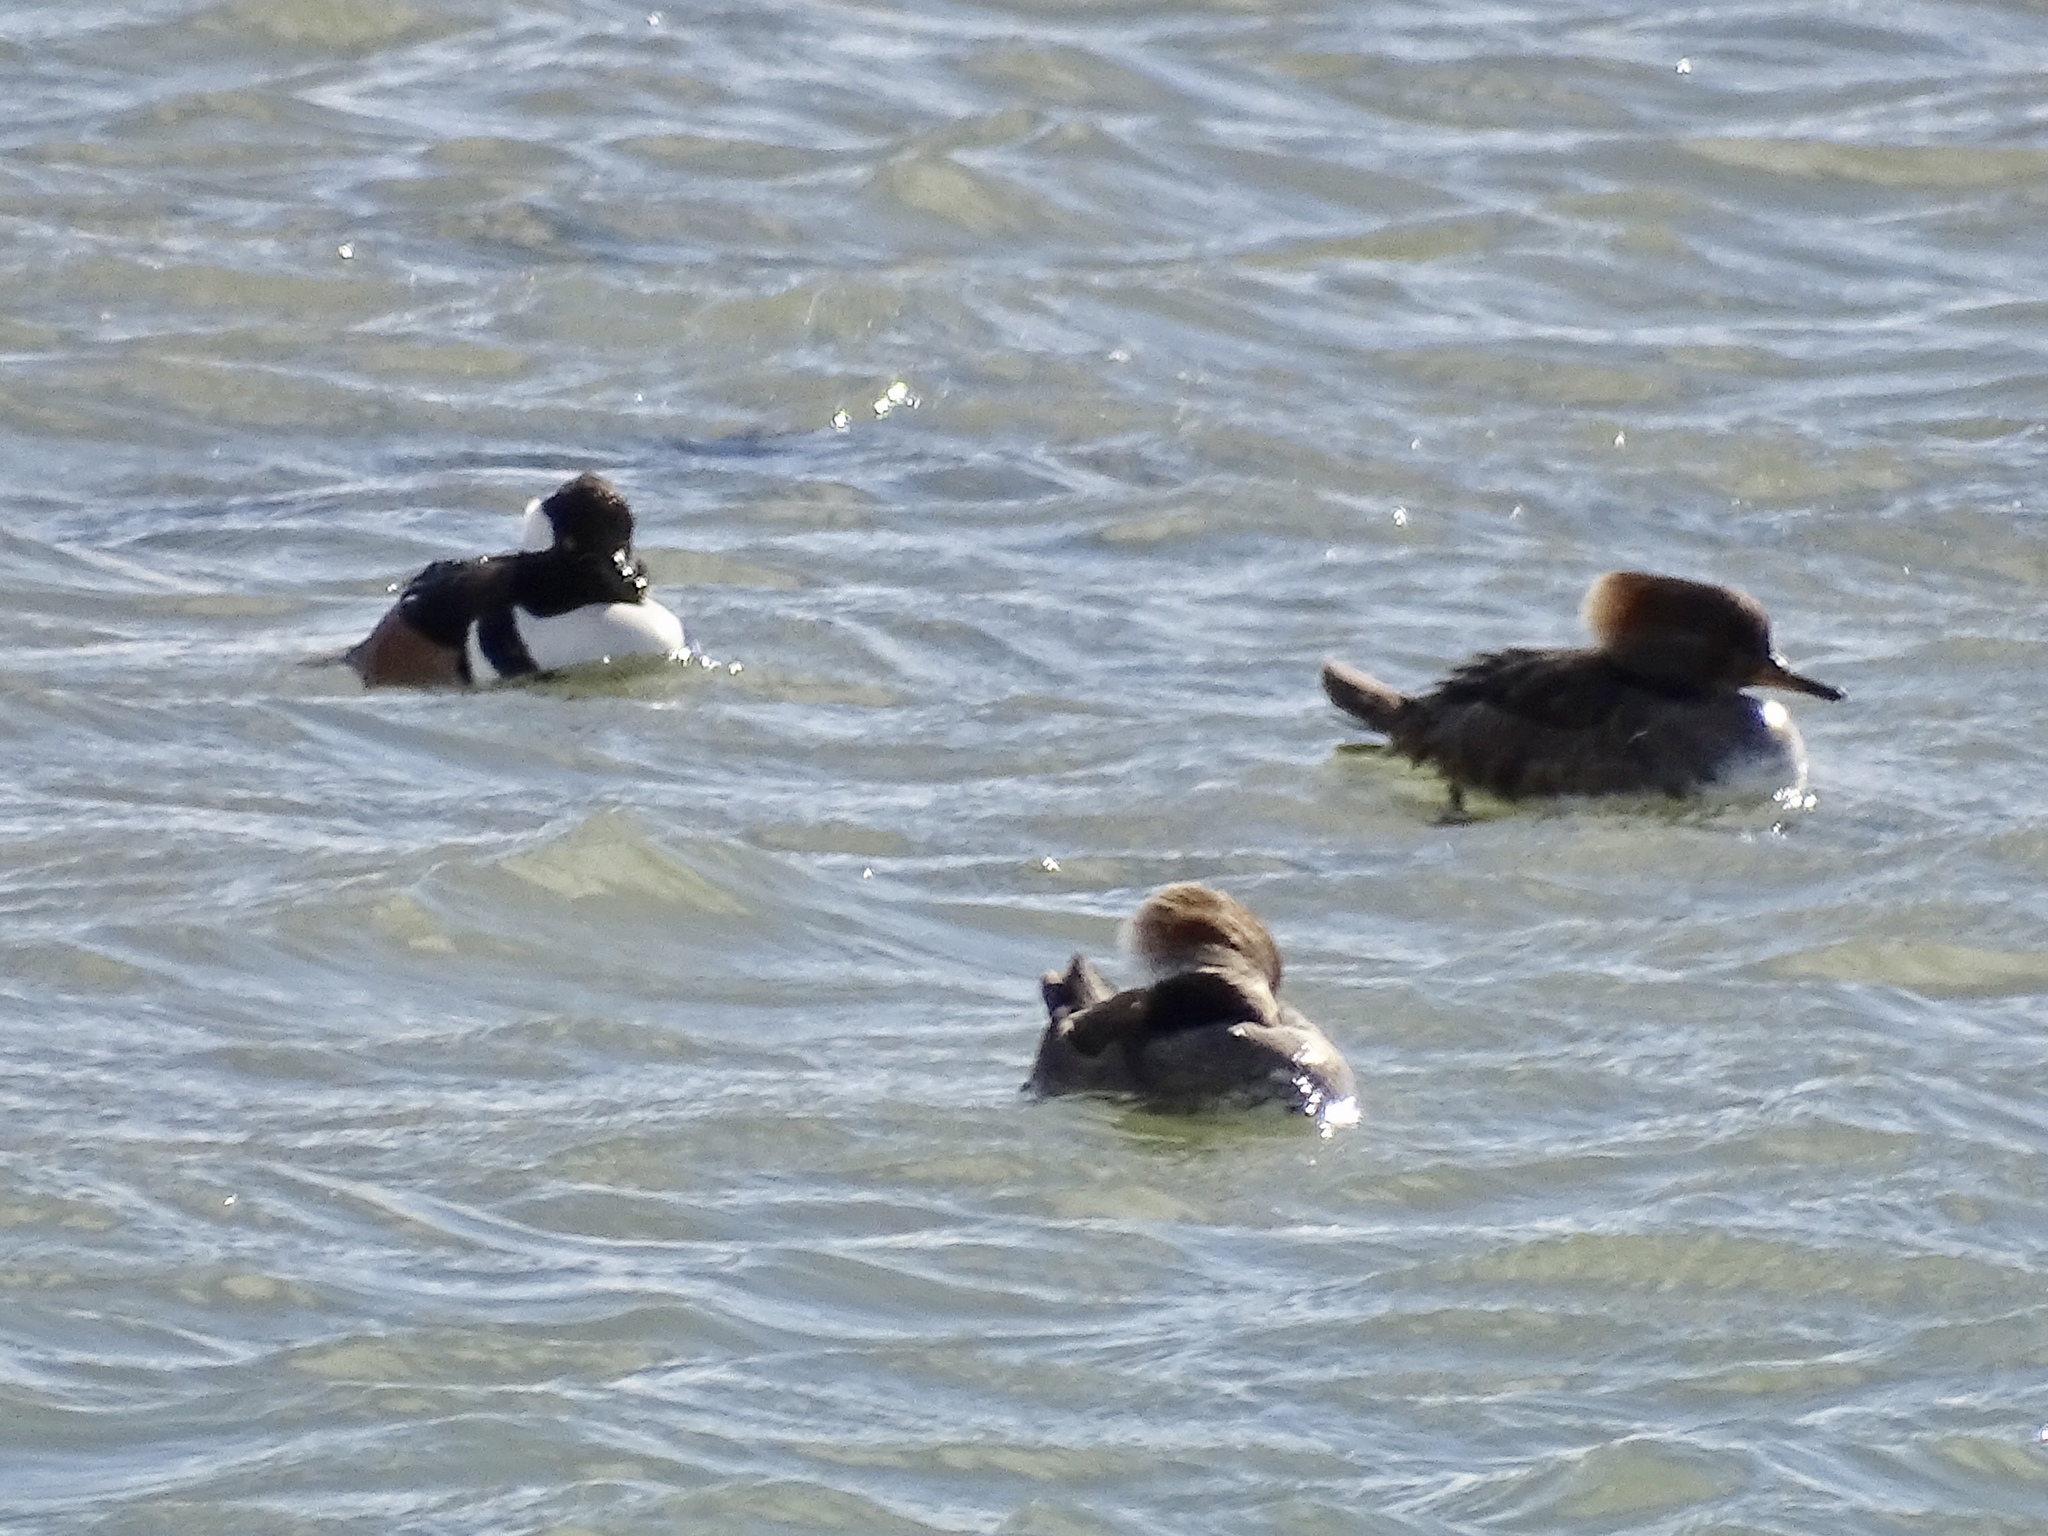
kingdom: Animalia
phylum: Chordata
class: Aves
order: Anseriformes
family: Anatidae
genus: Lophodytes
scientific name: Lophodytes cucullatus
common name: Hooded merganser
